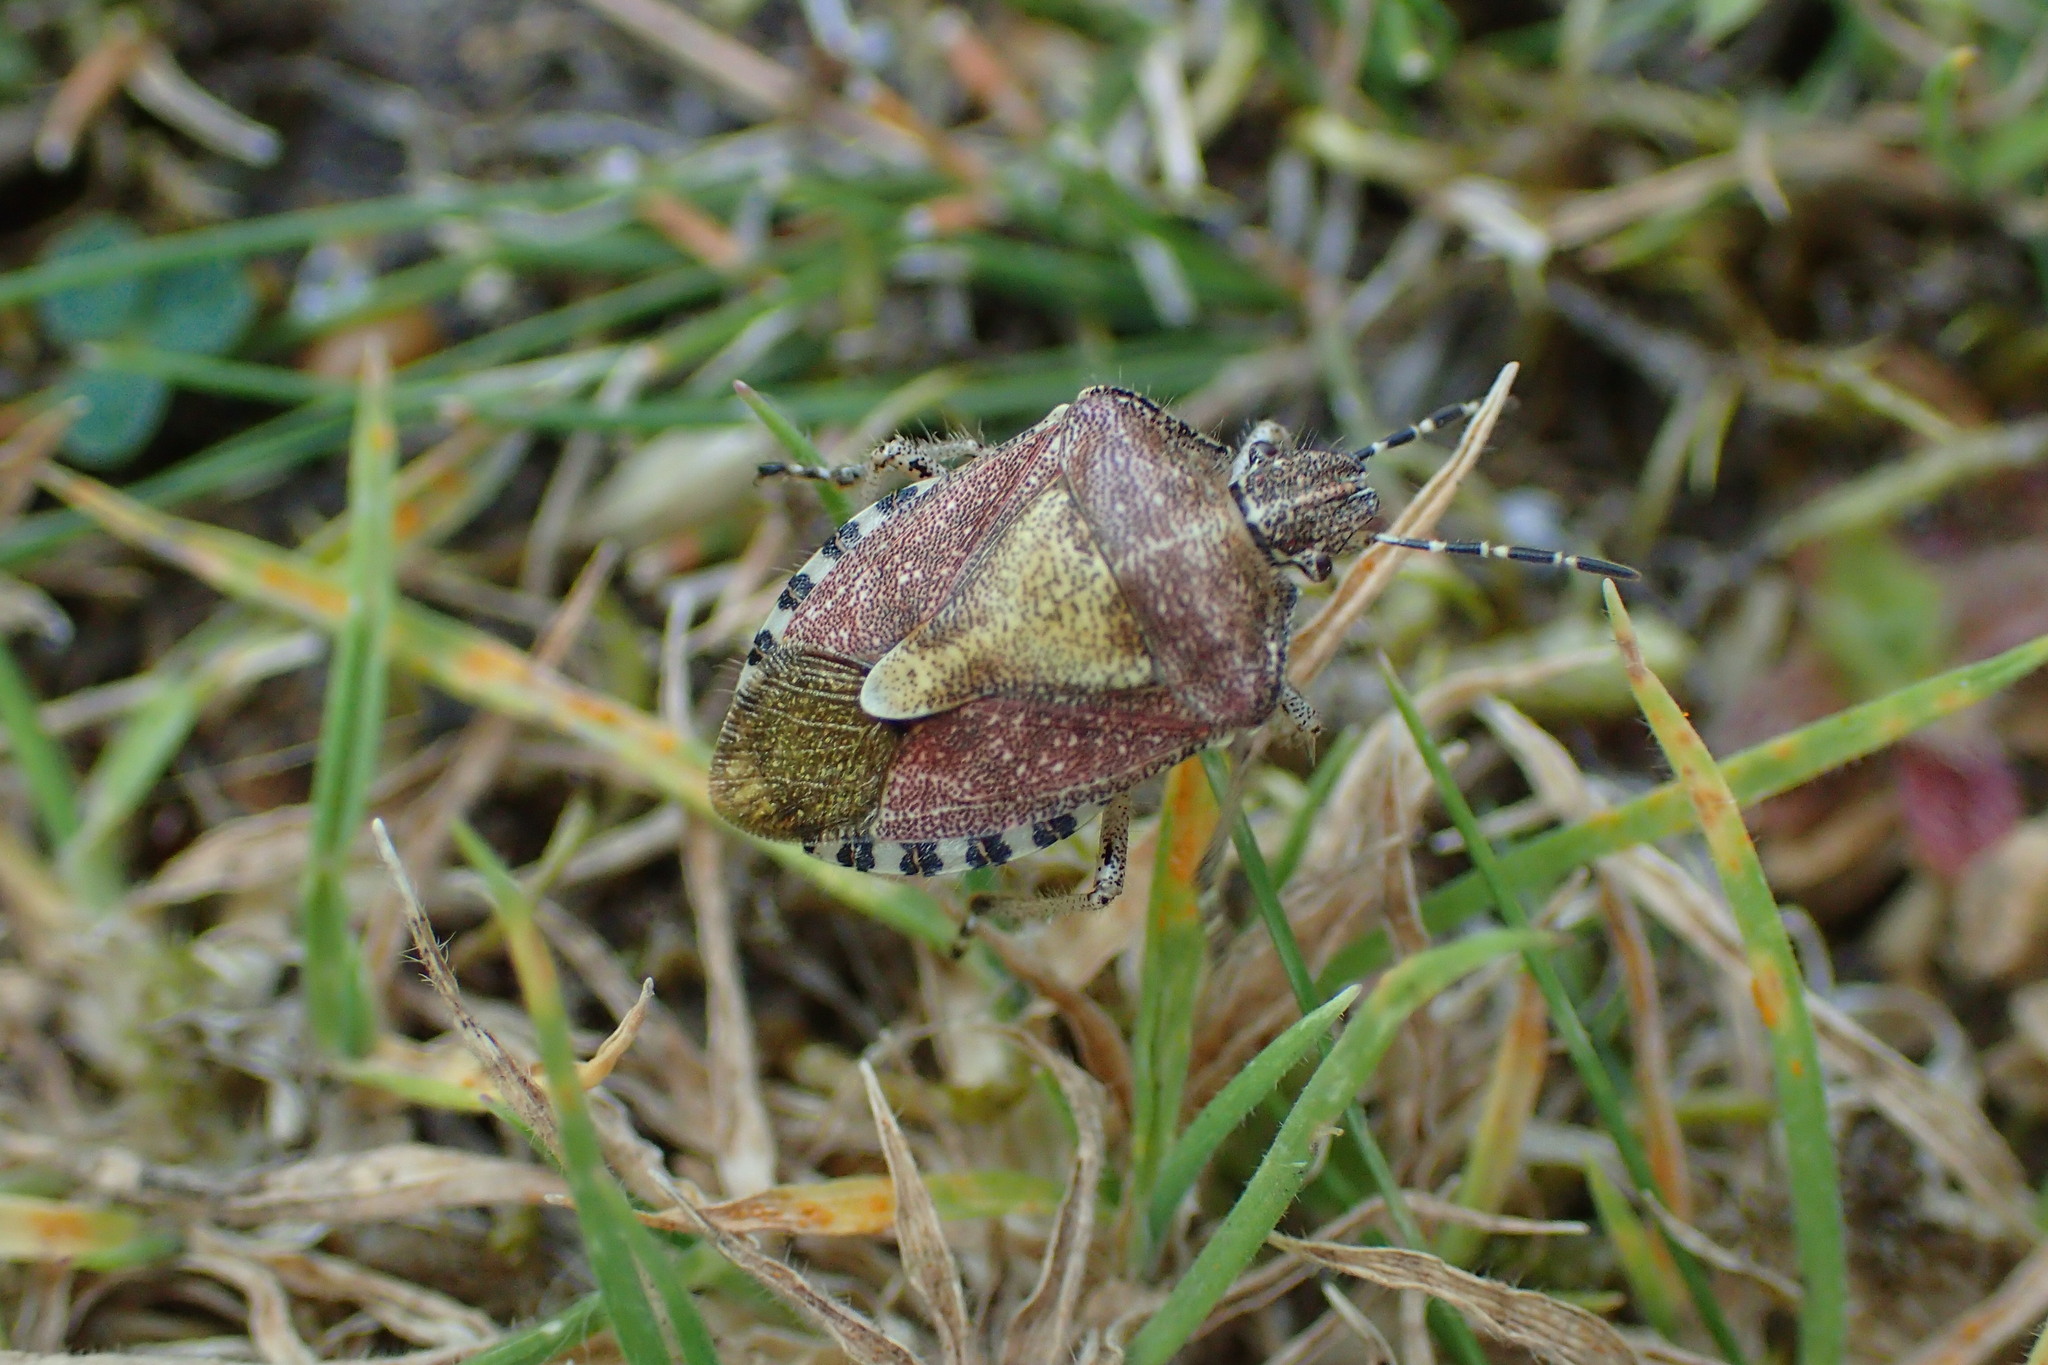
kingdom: Animalia
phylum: Arthropoda
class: Insecta
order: Hemiptera
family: Pentatomidae
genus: Dolycoris
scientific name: Dolycoris baccarum
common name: Sloe bug
